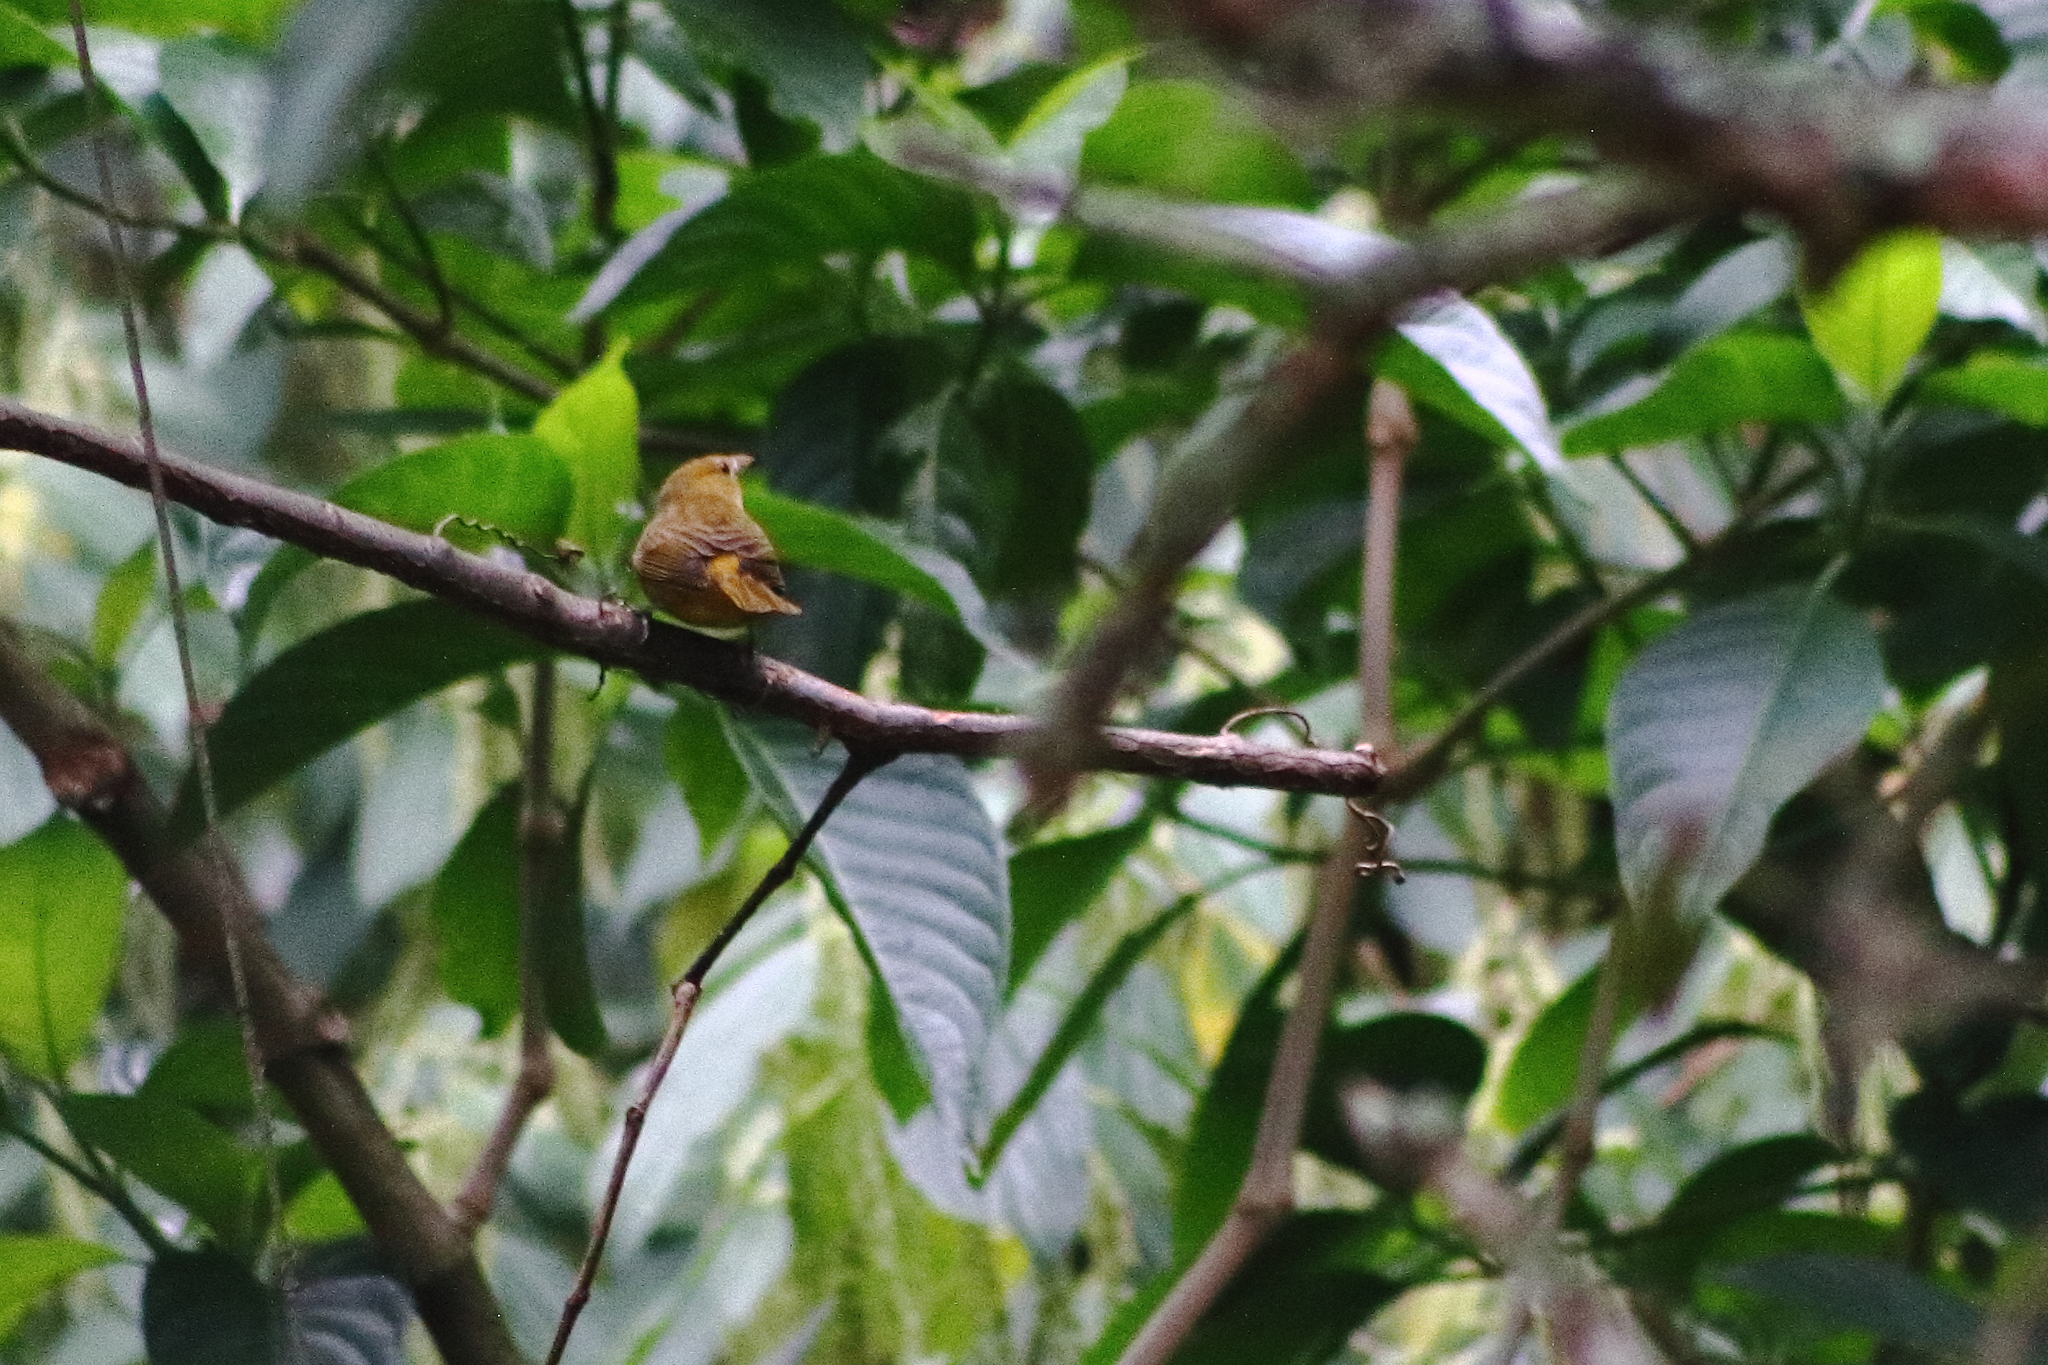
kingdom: Animalia
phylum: Chordata
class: Aves
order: Passeriformes
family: Cardinalidae
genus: Piranga
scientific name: Piranga rubra
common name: Summer tanager
